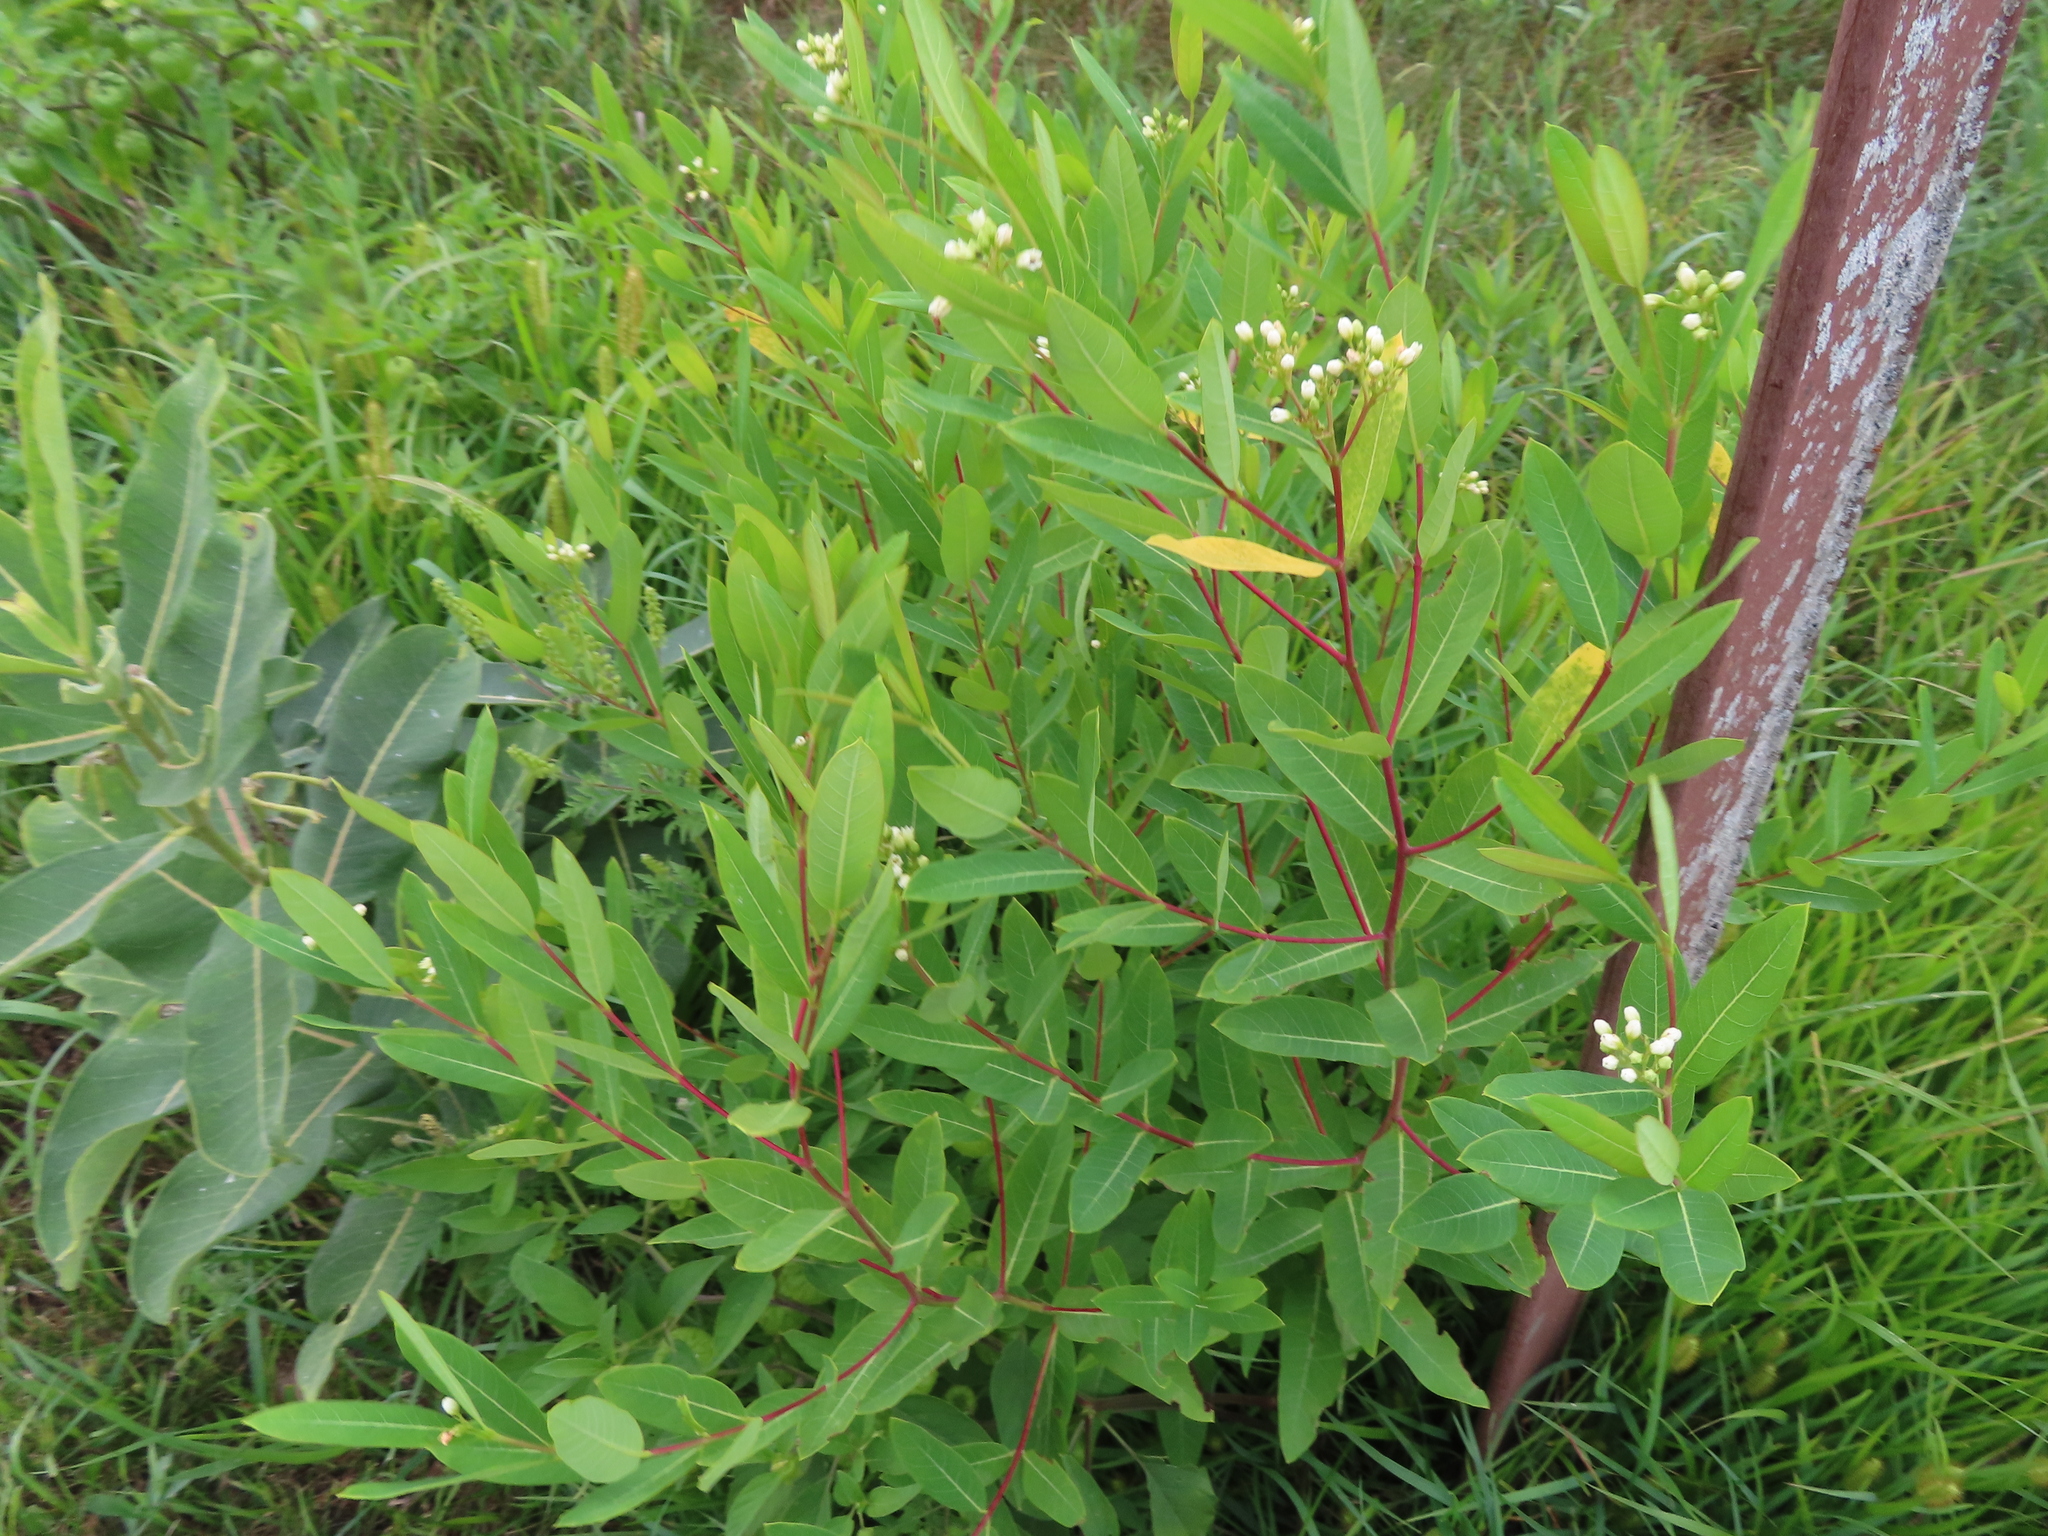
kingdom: Plantae
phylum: Tracheophyta
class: Magnoliopsida
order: Gentianales
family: Apocynaceae
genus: Apocynum
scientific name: Apocynum cannabinum
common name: Hemp dogbane
